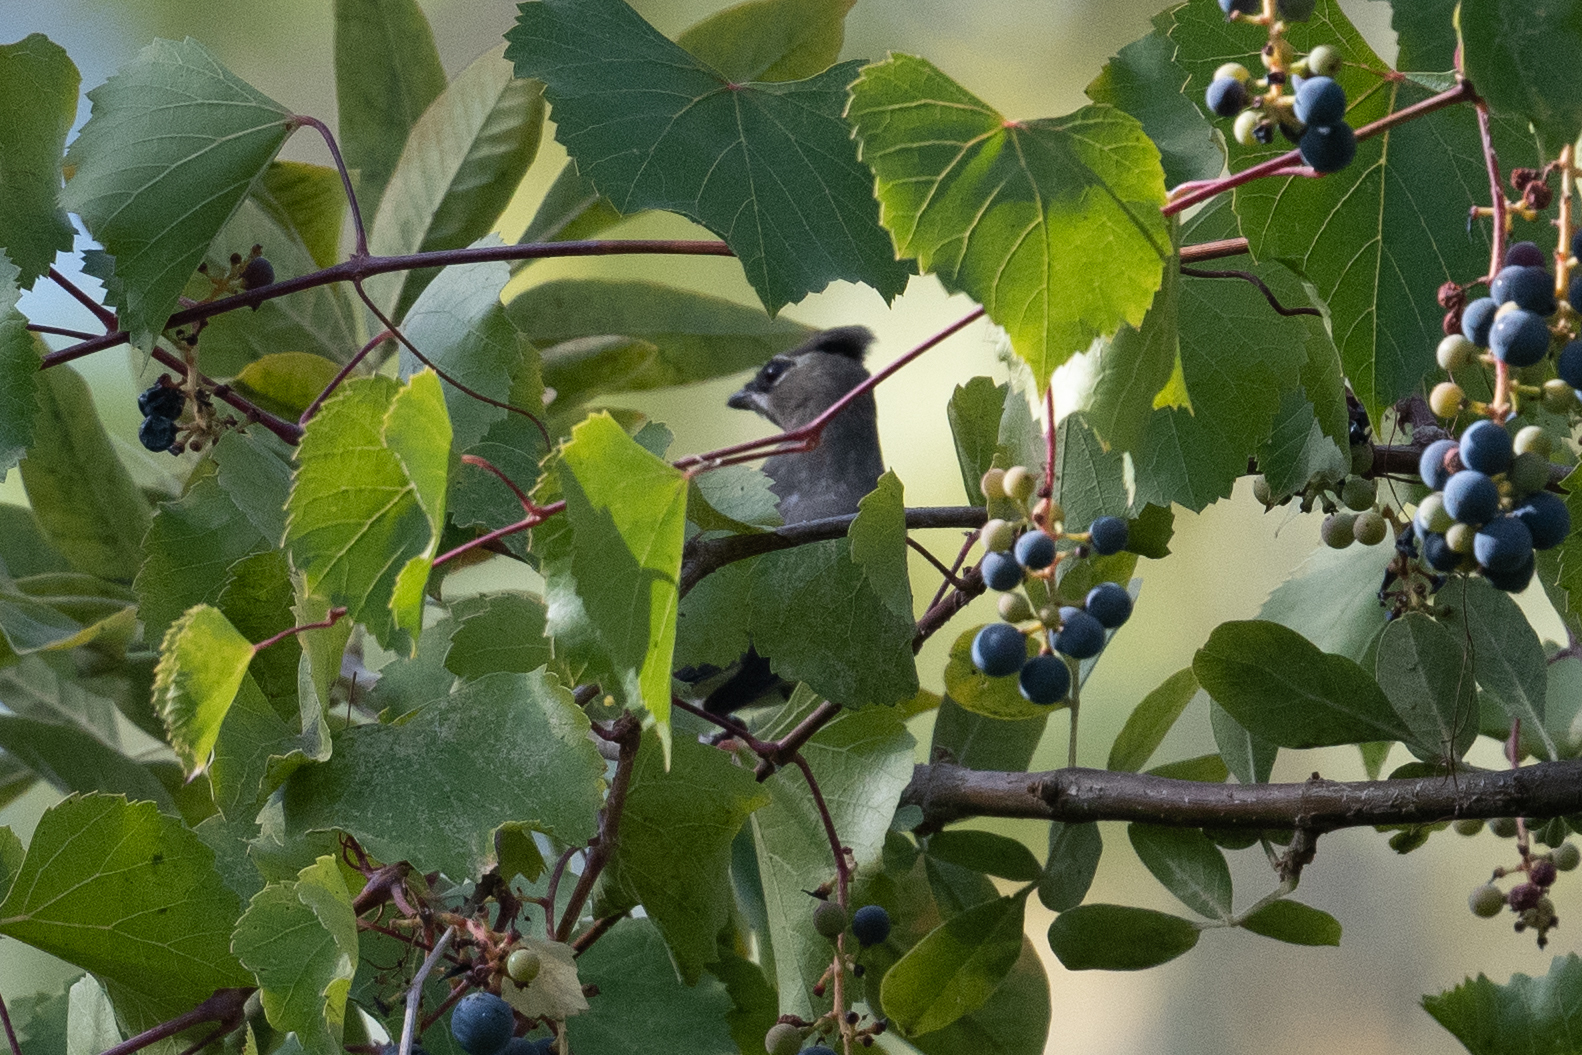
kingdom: Animalia
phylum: Chordata
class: Aves
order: Passeriformes
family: Bombycillidae
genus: Bombycilla
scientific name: Bombycilla cedrorum
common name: Cedar waxwing
